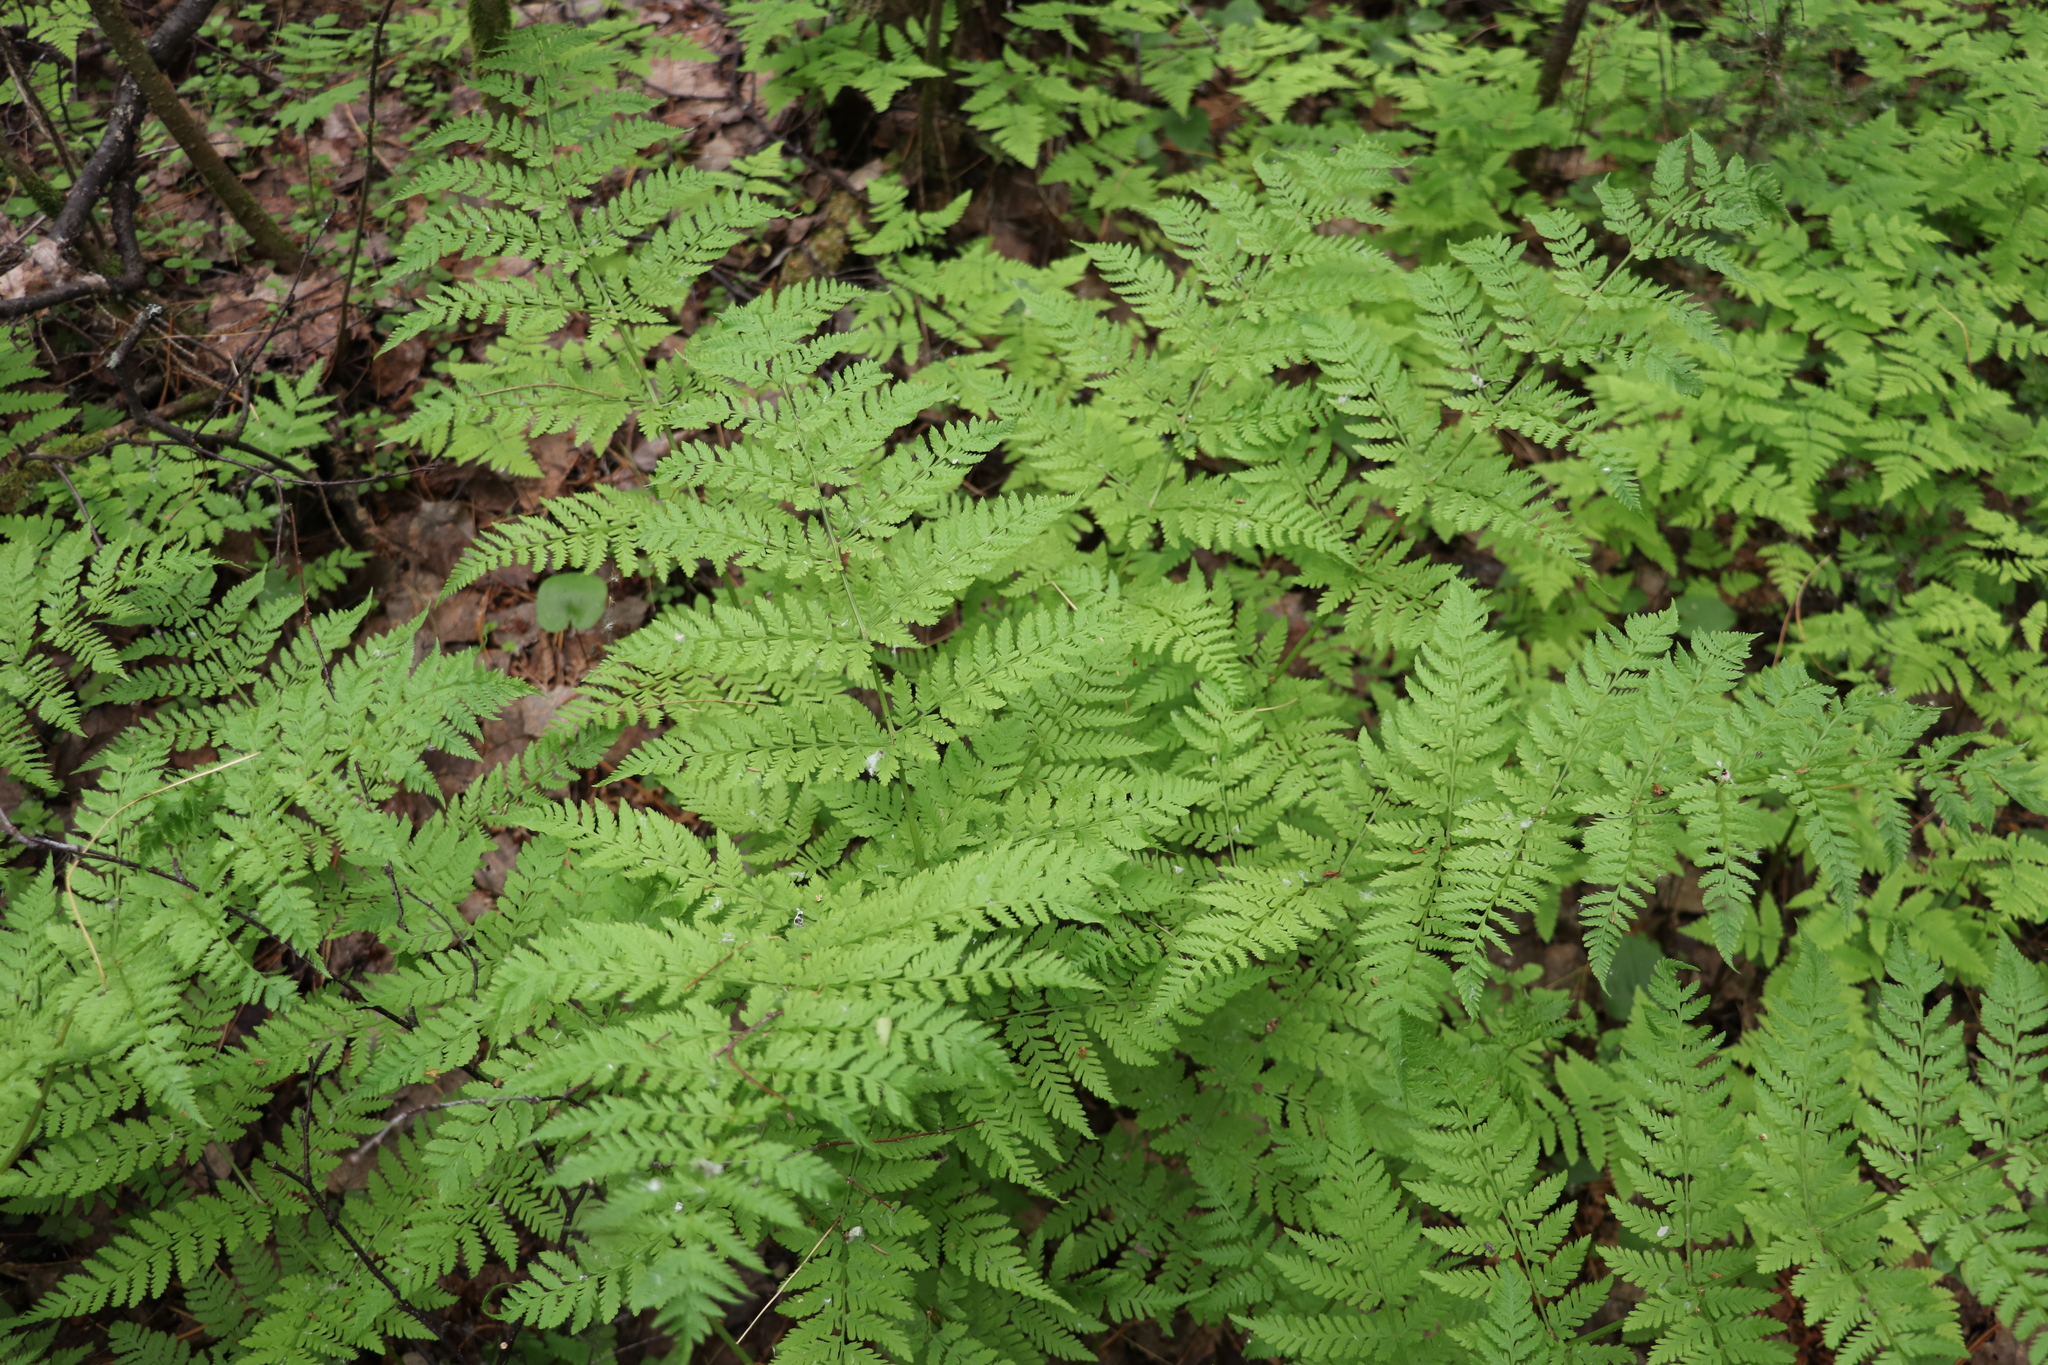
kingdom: Plantae
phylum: Tracheophyta
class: Polypodiopsida
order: Polypodiales
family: Dryopteridaceae
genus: Dryopteris
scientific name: Dryopteris expansa
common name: Northern buckler fern
